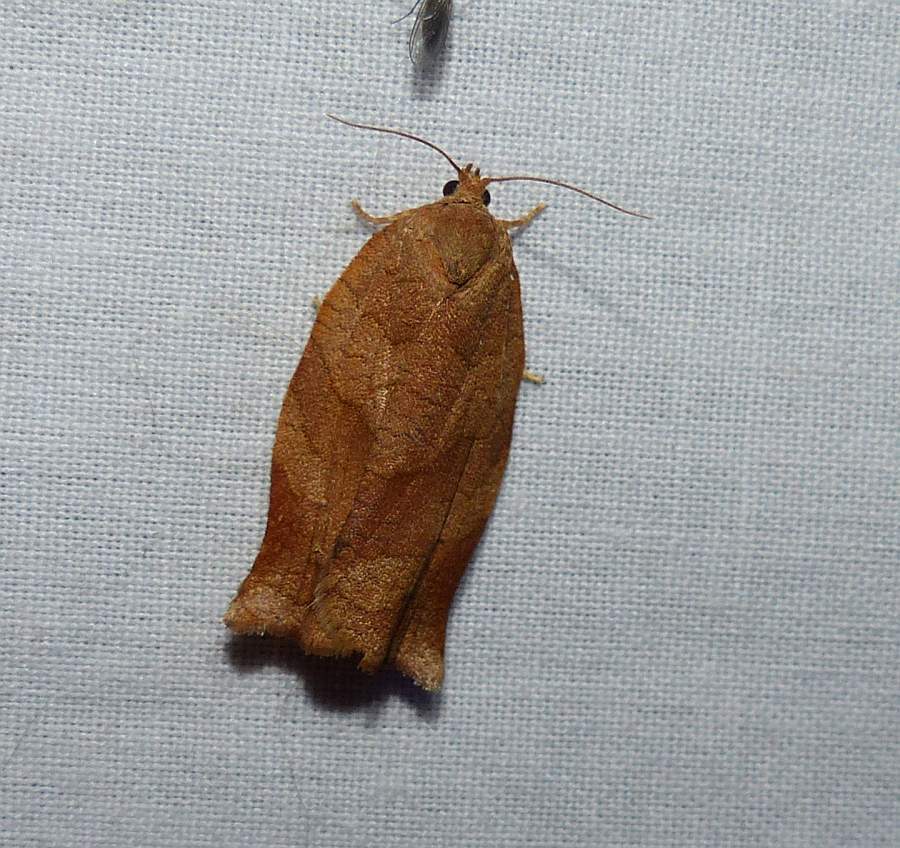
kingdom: Animalia
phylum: Arthropoda
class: Insecta
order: Lepidoptera
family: Tortricidae
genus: Choristoneura
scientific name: Choristoneura rosaceana
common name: Oblique-banded leafroller moth
